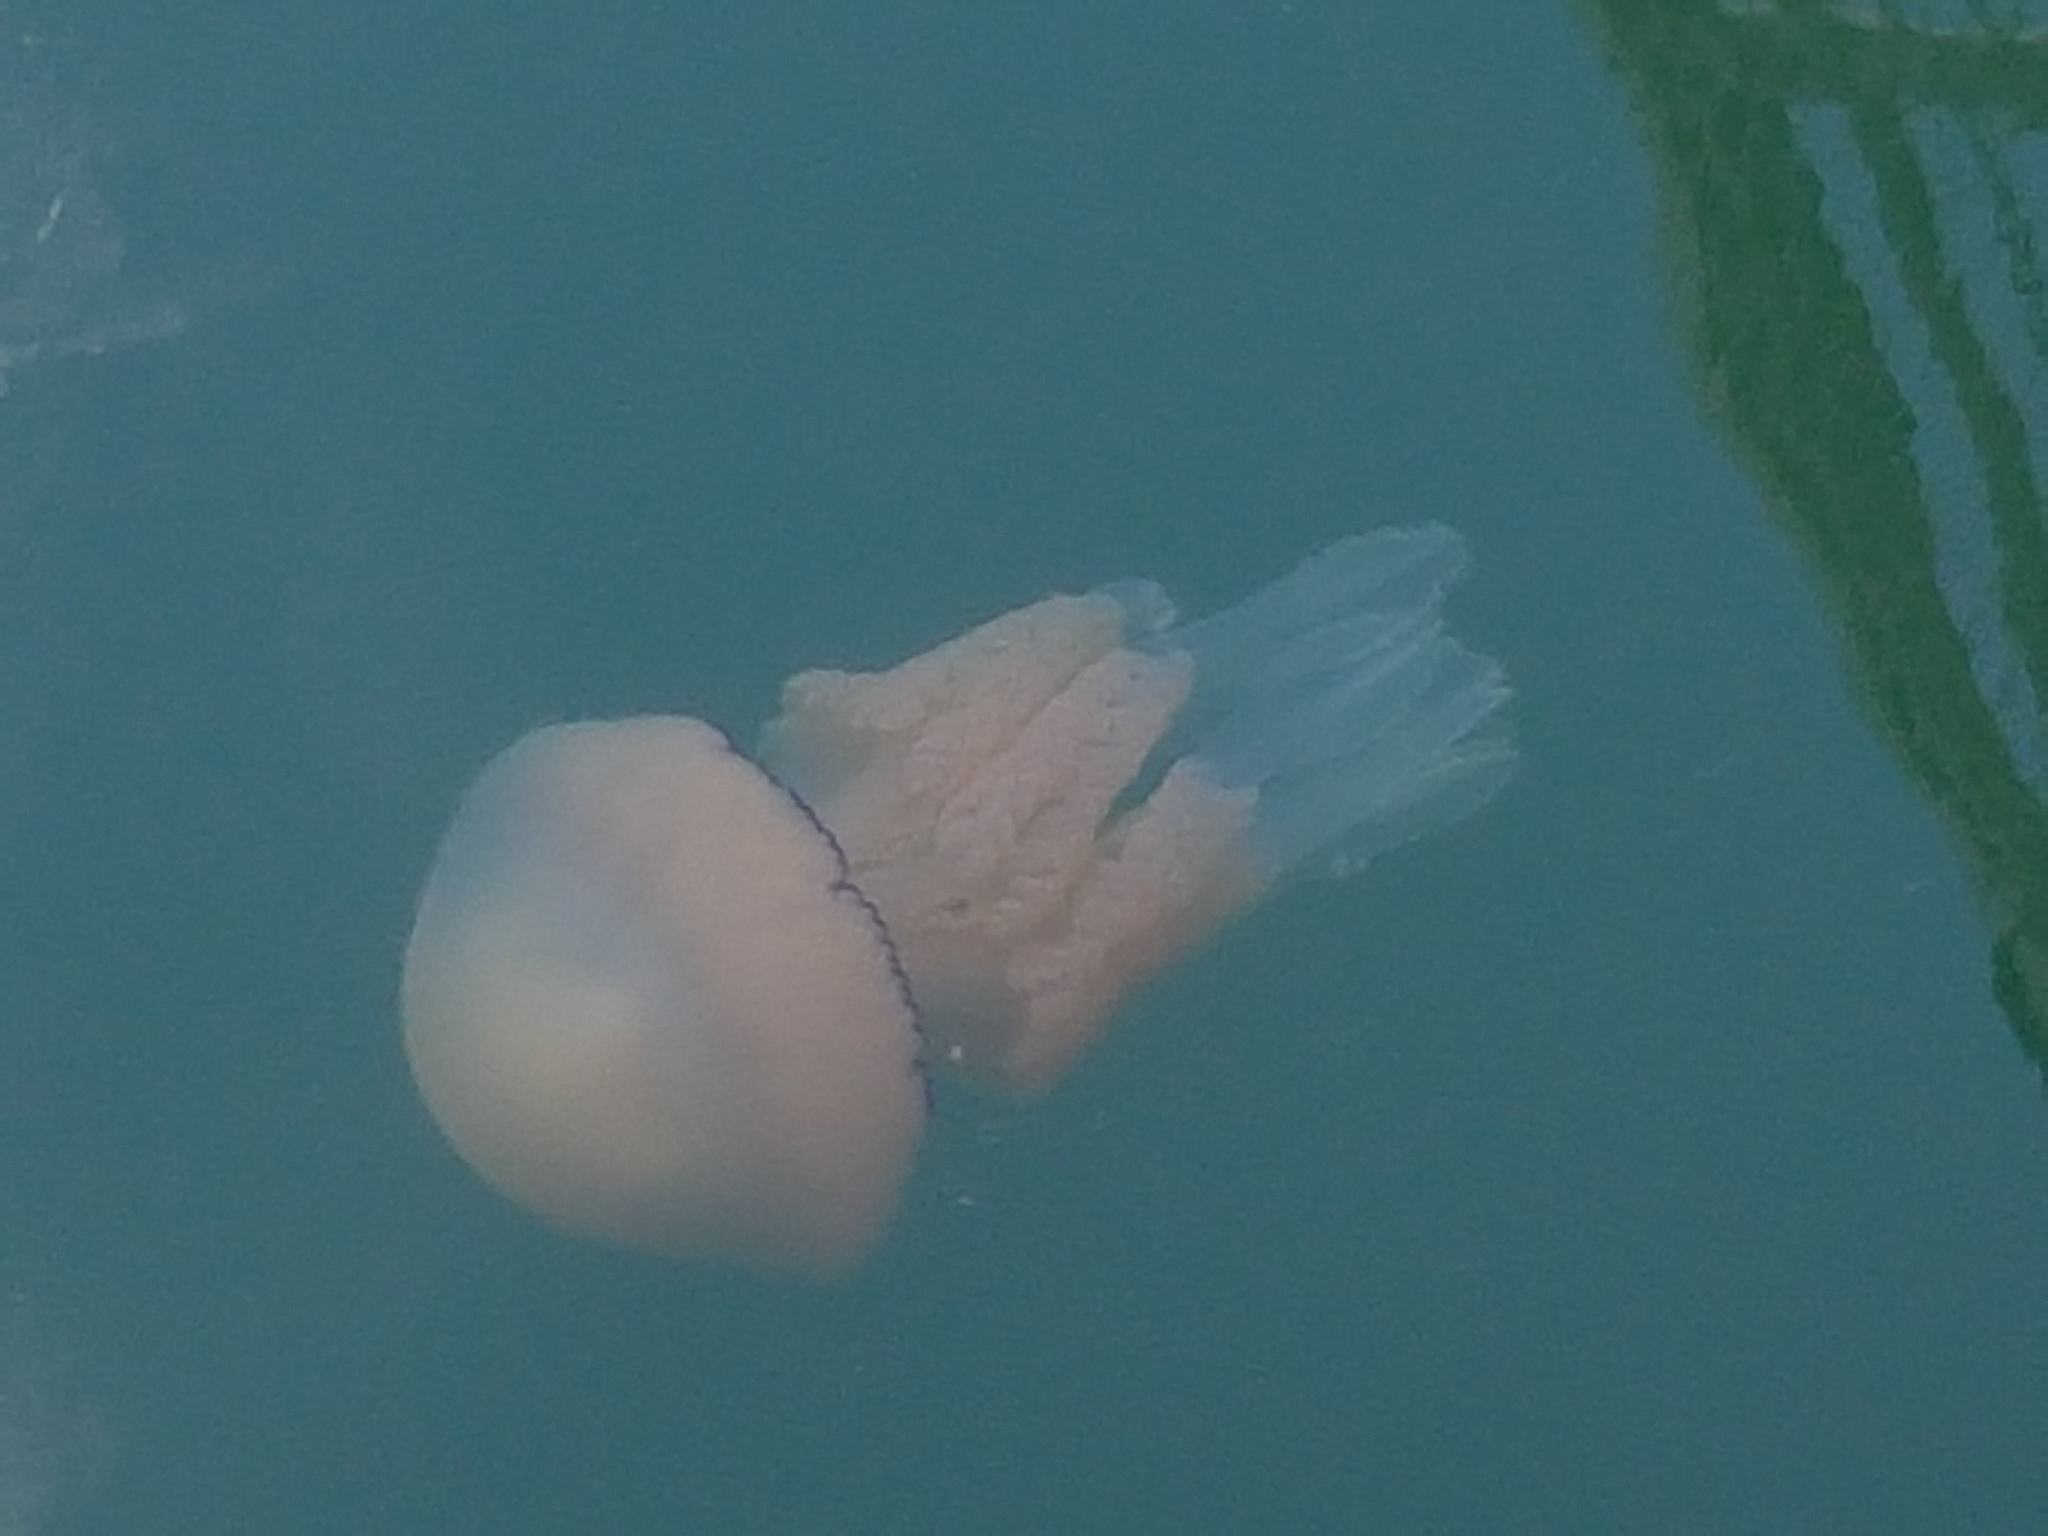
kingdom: Animalia
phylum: Cnidaria
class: Scyphozoa
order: Rhizostomeae
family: Rhizostomatidae
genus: Rhizostoma
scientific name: Rhizostoma octopus
